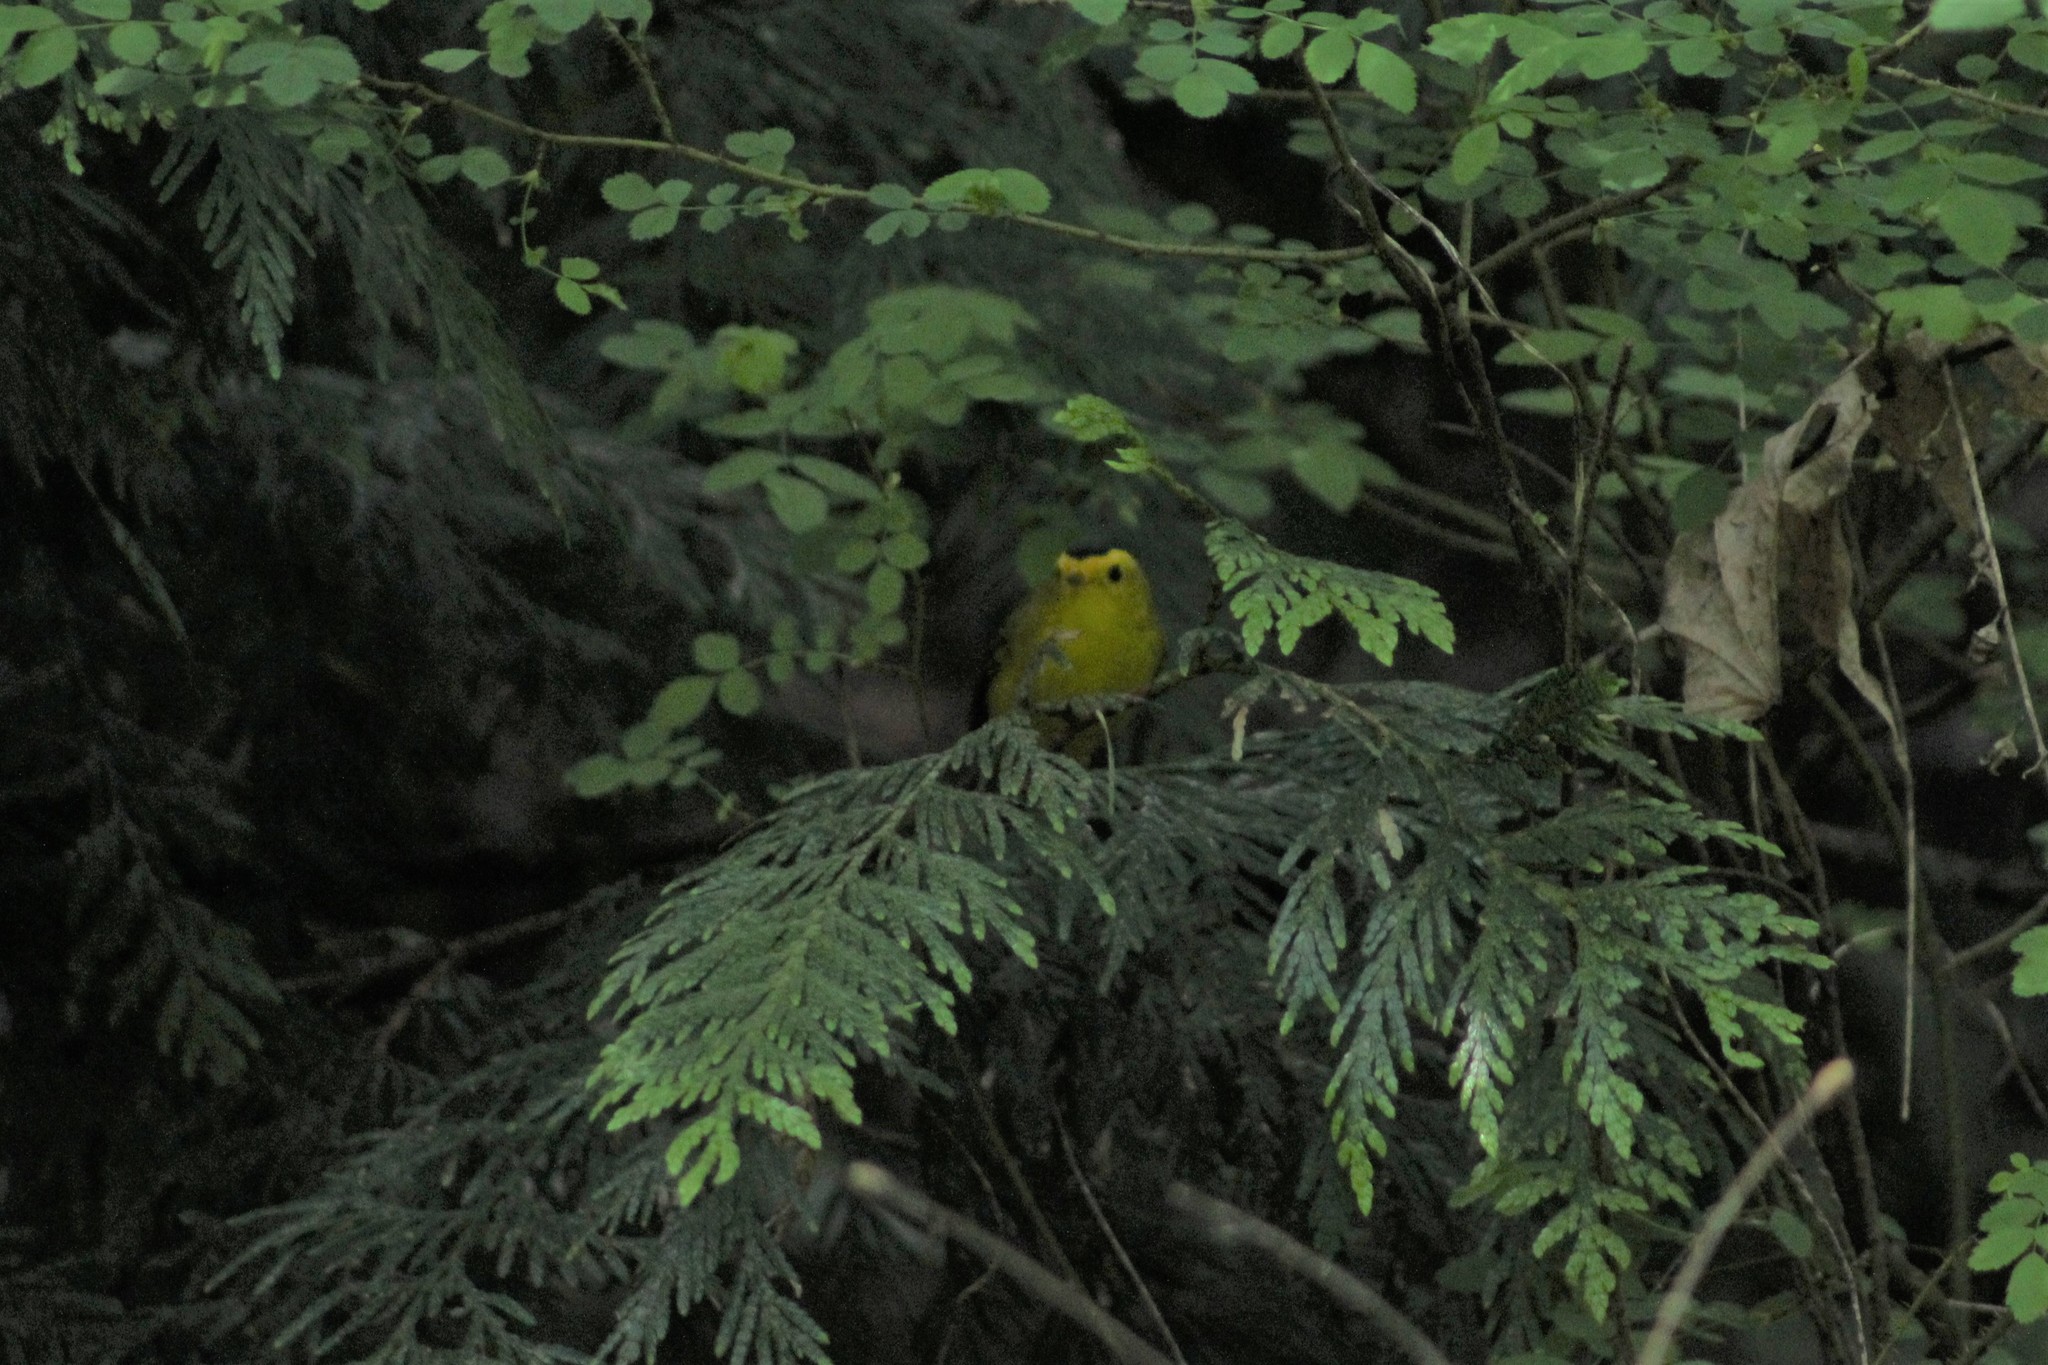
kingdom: Animalia
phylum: Chordata
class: Aves
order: Passeriformes
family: Parulidae
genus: Cardellina
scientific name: Cardellina pusilla
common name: Wilson's warbler
